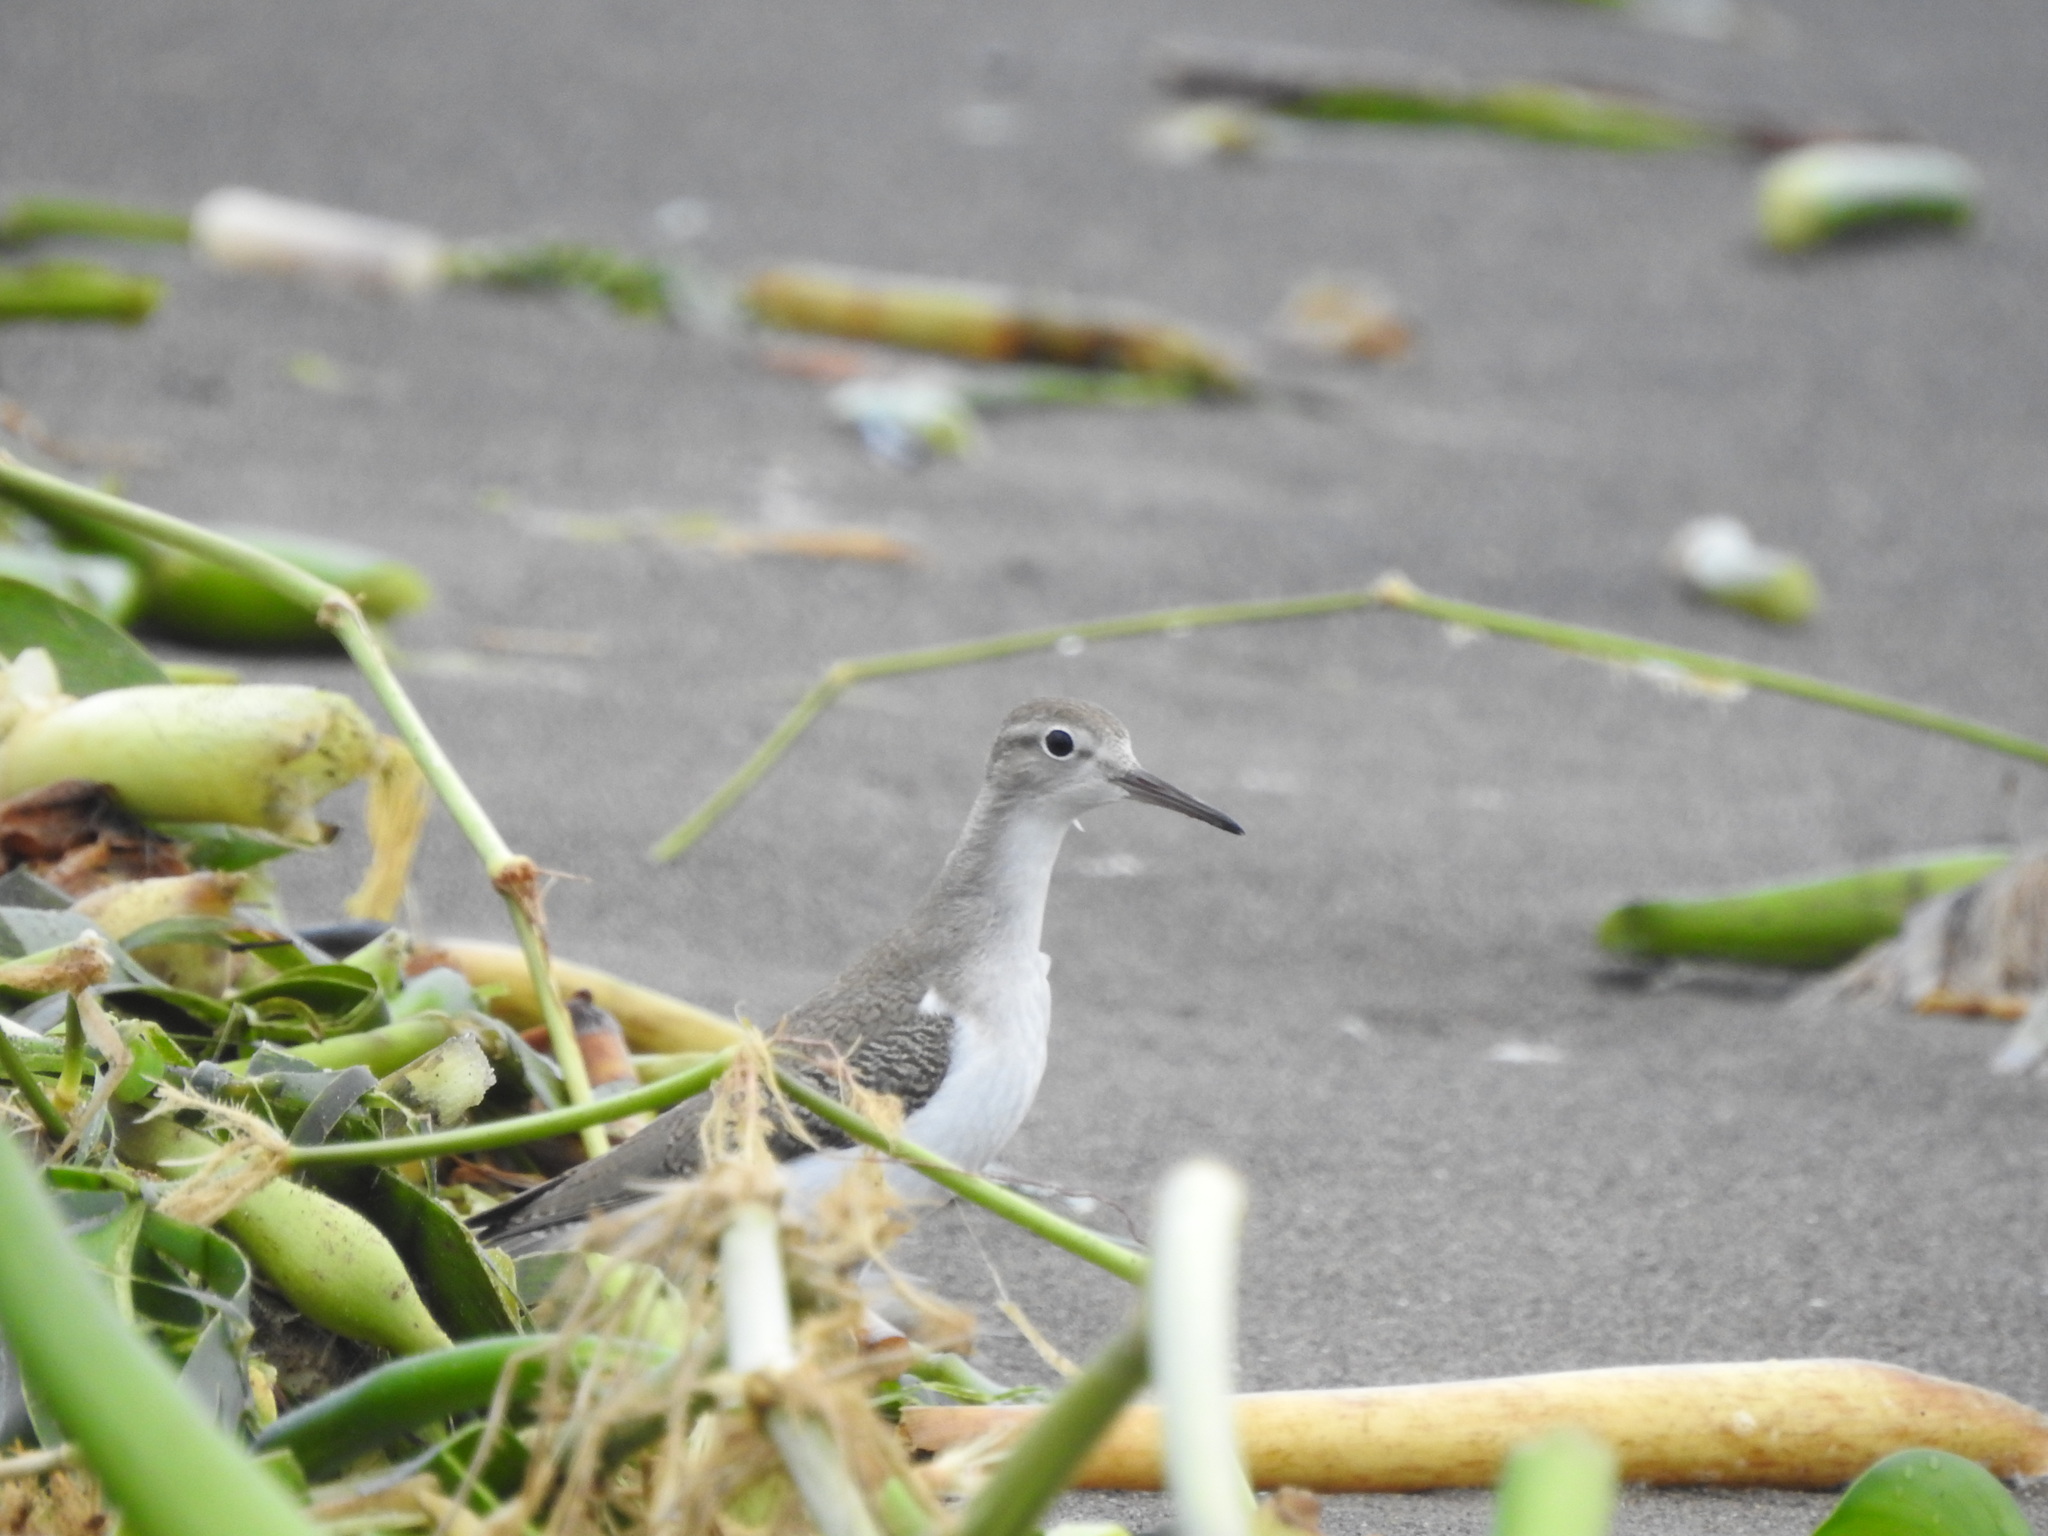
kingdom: Animalia
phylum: Chordata
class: Aves
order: Charadriiformes
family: Scolopacidae
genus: Actitis
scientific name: Actitis macularius
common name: Spotted sandpiper
